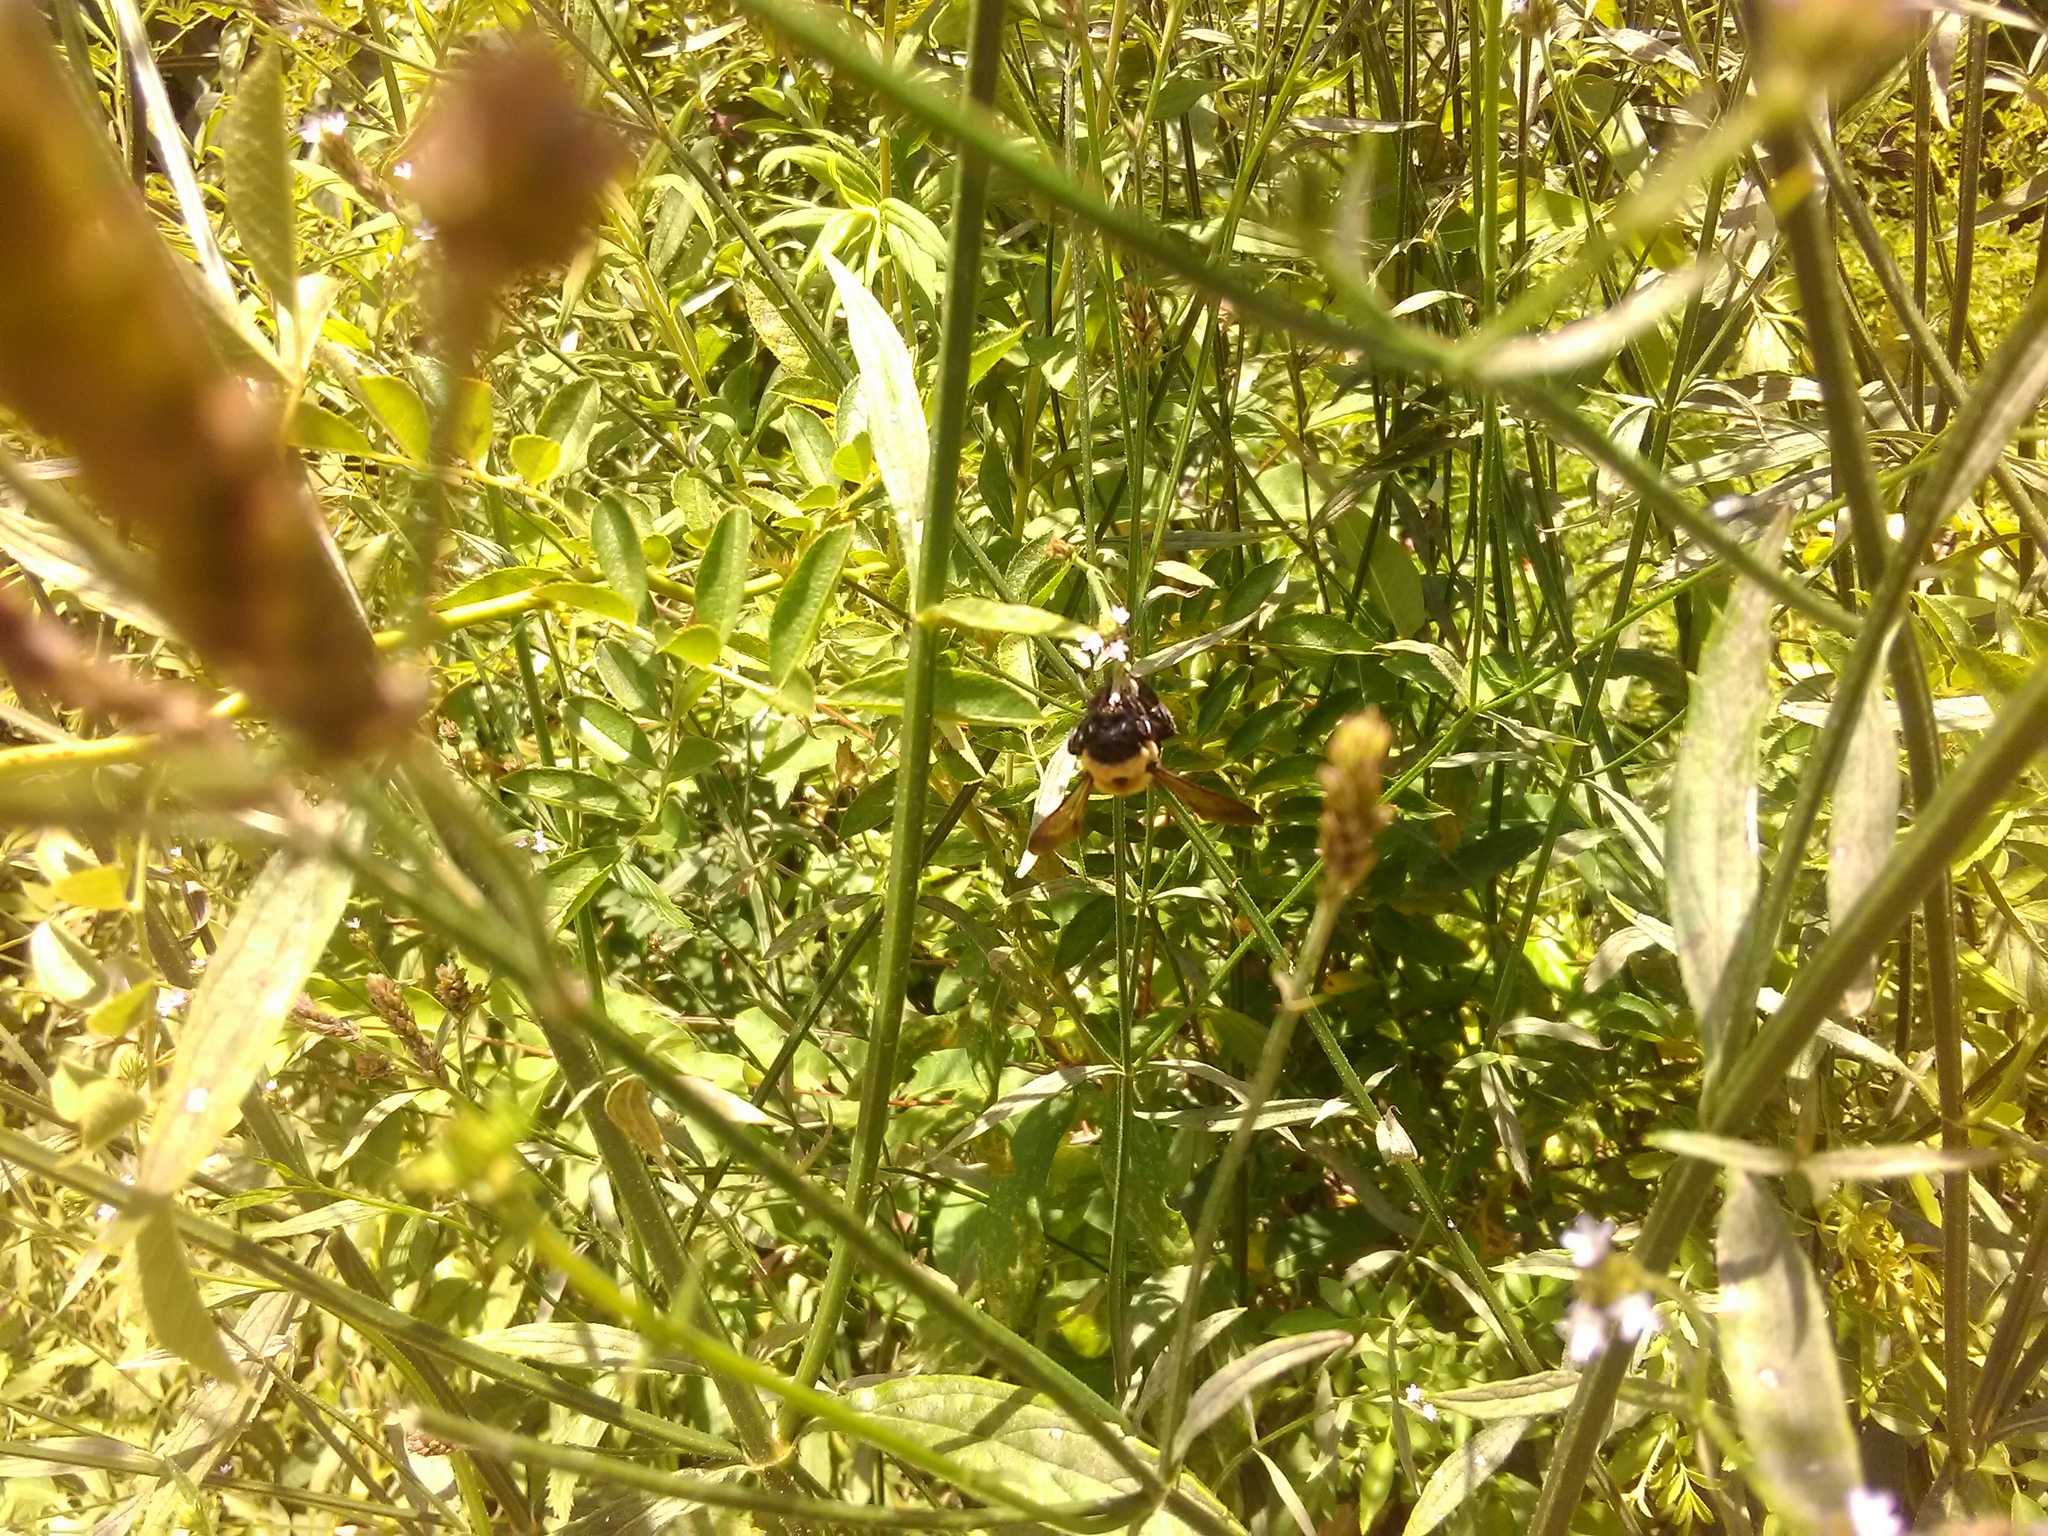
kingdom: Animalia
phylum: Arthropoda
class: Insecta
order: Hymenoptera
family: Apidae
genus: Xylocopa
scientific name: Xylocopa virginica
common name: Carpenter bee
